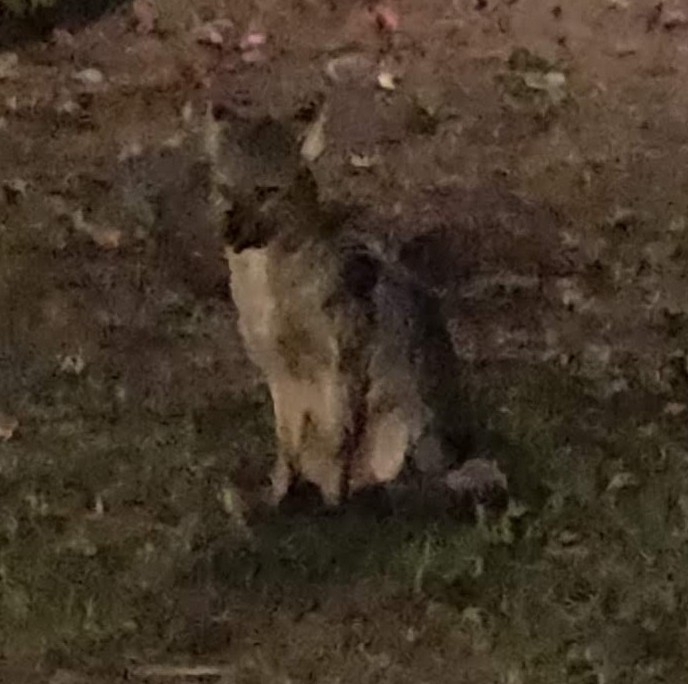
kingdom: Animalia
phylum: Chordata
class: Mammalia
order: Carnivora
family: Canidae
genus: Cerdocyon
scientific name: Cerdocyon thous
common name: Crab-eating fox
